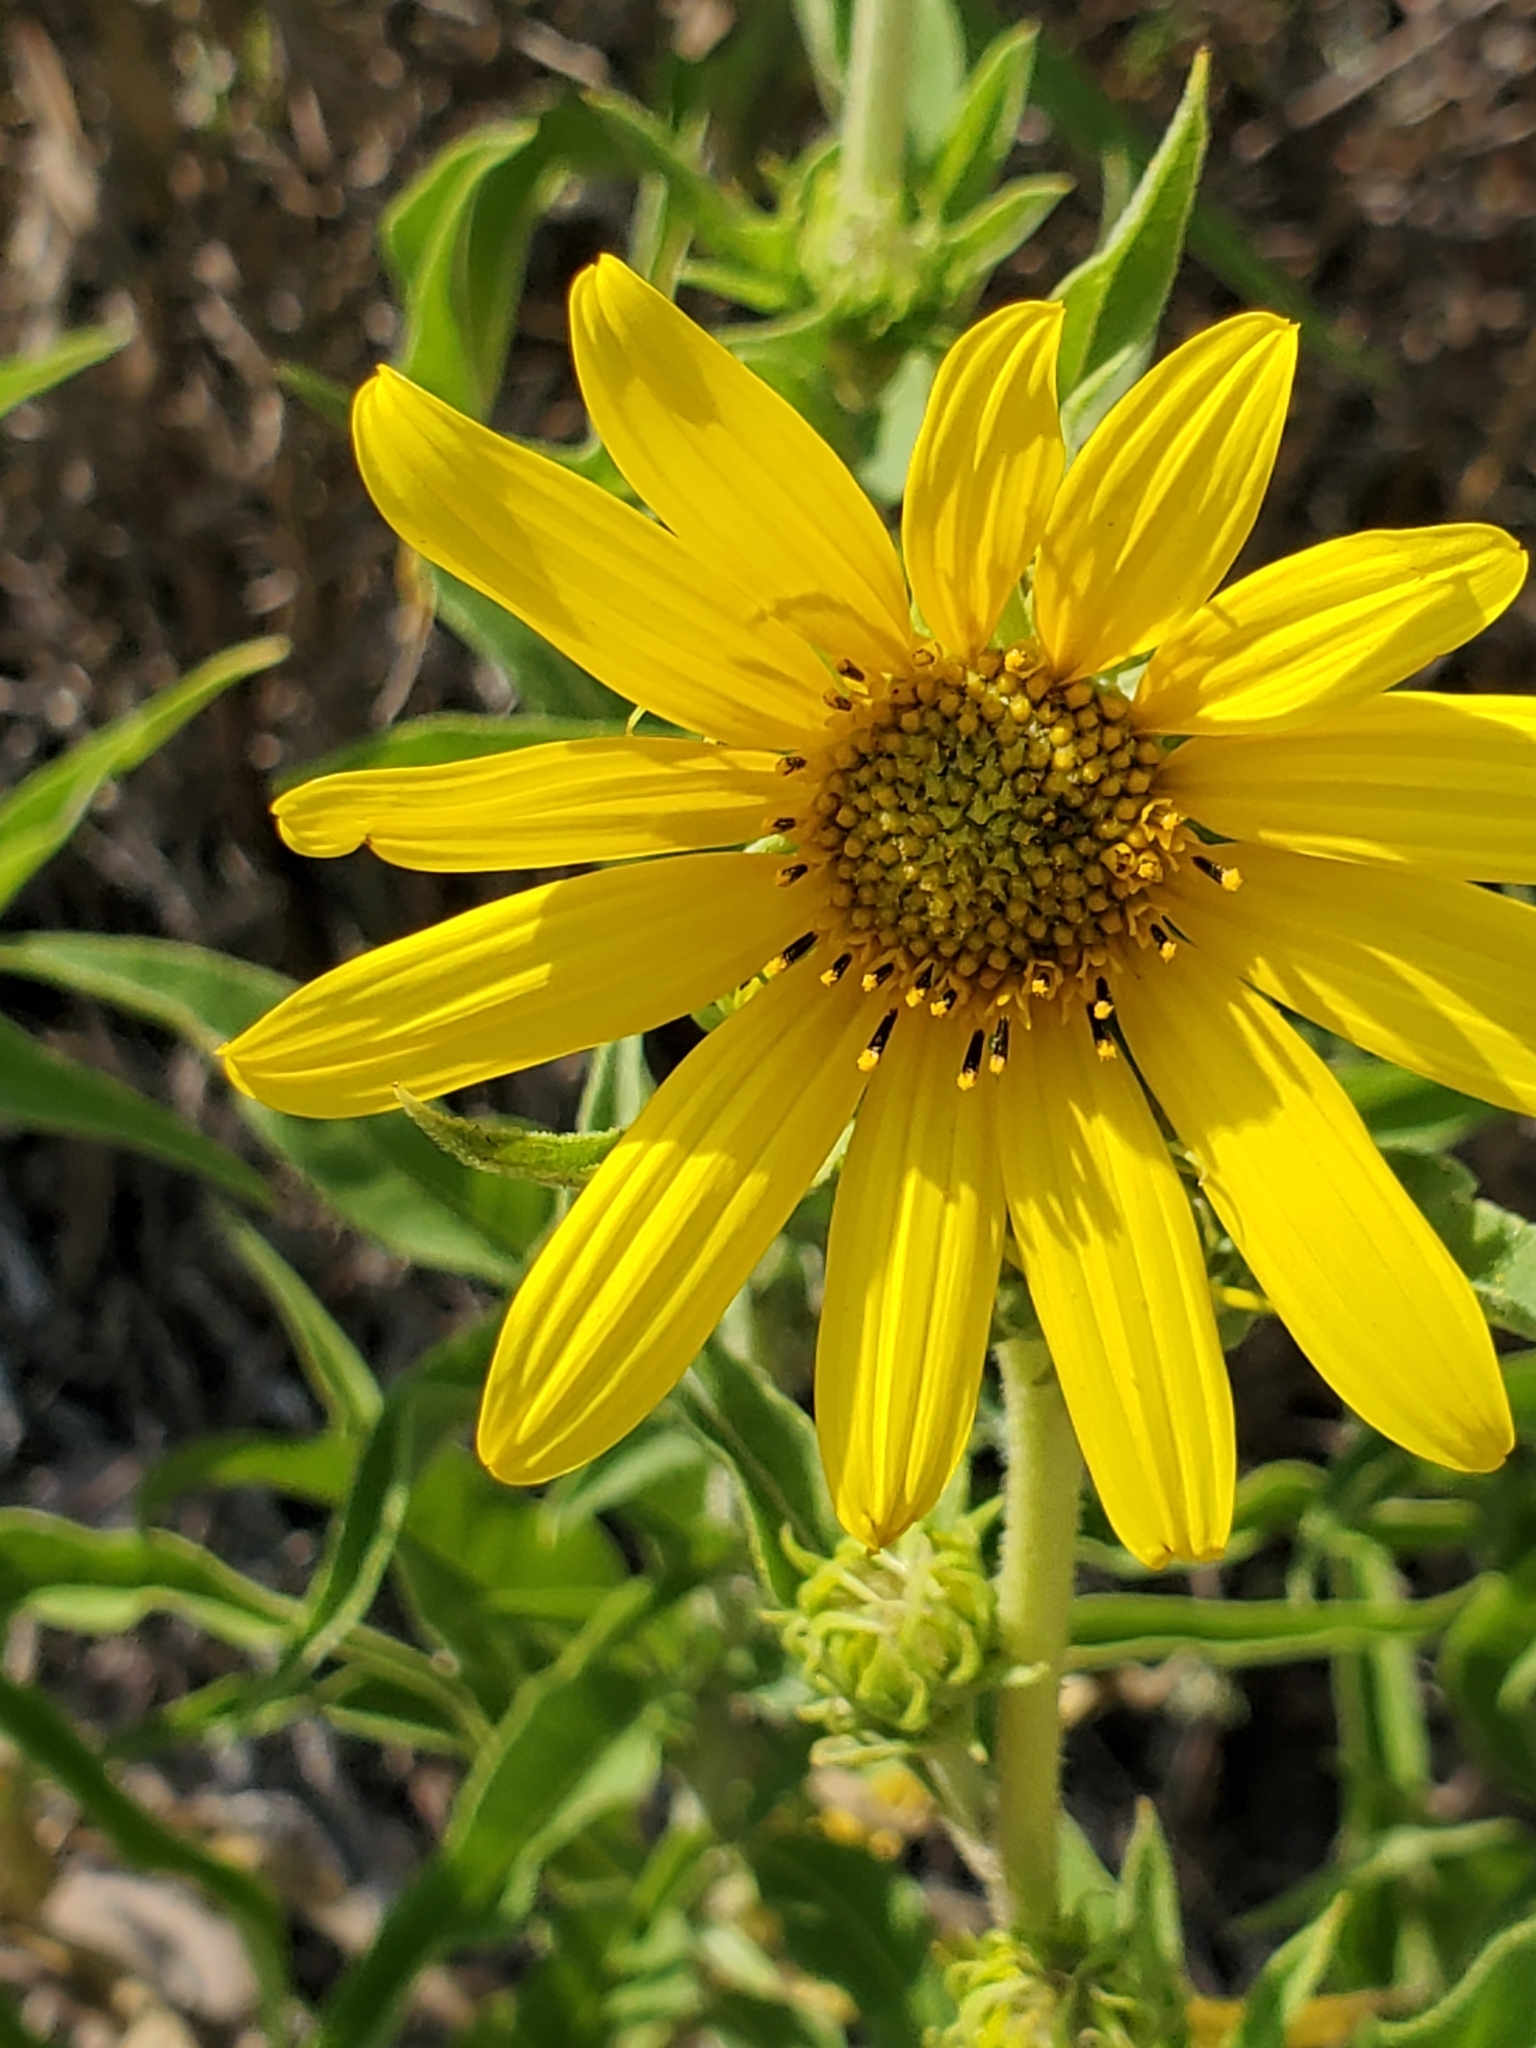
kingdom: Plantae
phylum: Tracheophyta
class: Magnoliopsida
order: Asterales
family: Asteraceae
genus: Helianthus
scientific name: Helianthus maximiliani
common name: Maximilian's sunflower
